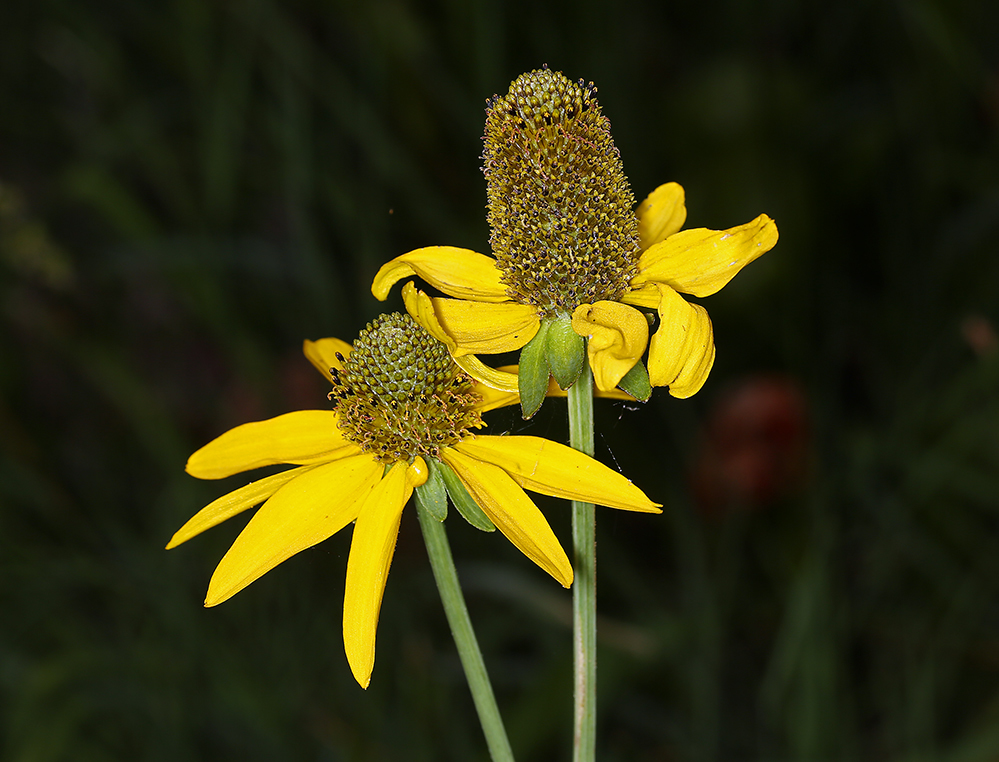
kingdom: Plantae
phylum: Tracheophyta
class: Magnoliopsida
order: Asterales
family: Asteraceae
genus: Rudbeckia
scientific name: Rudbeckia klamathensis
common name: Klamath coneflower
